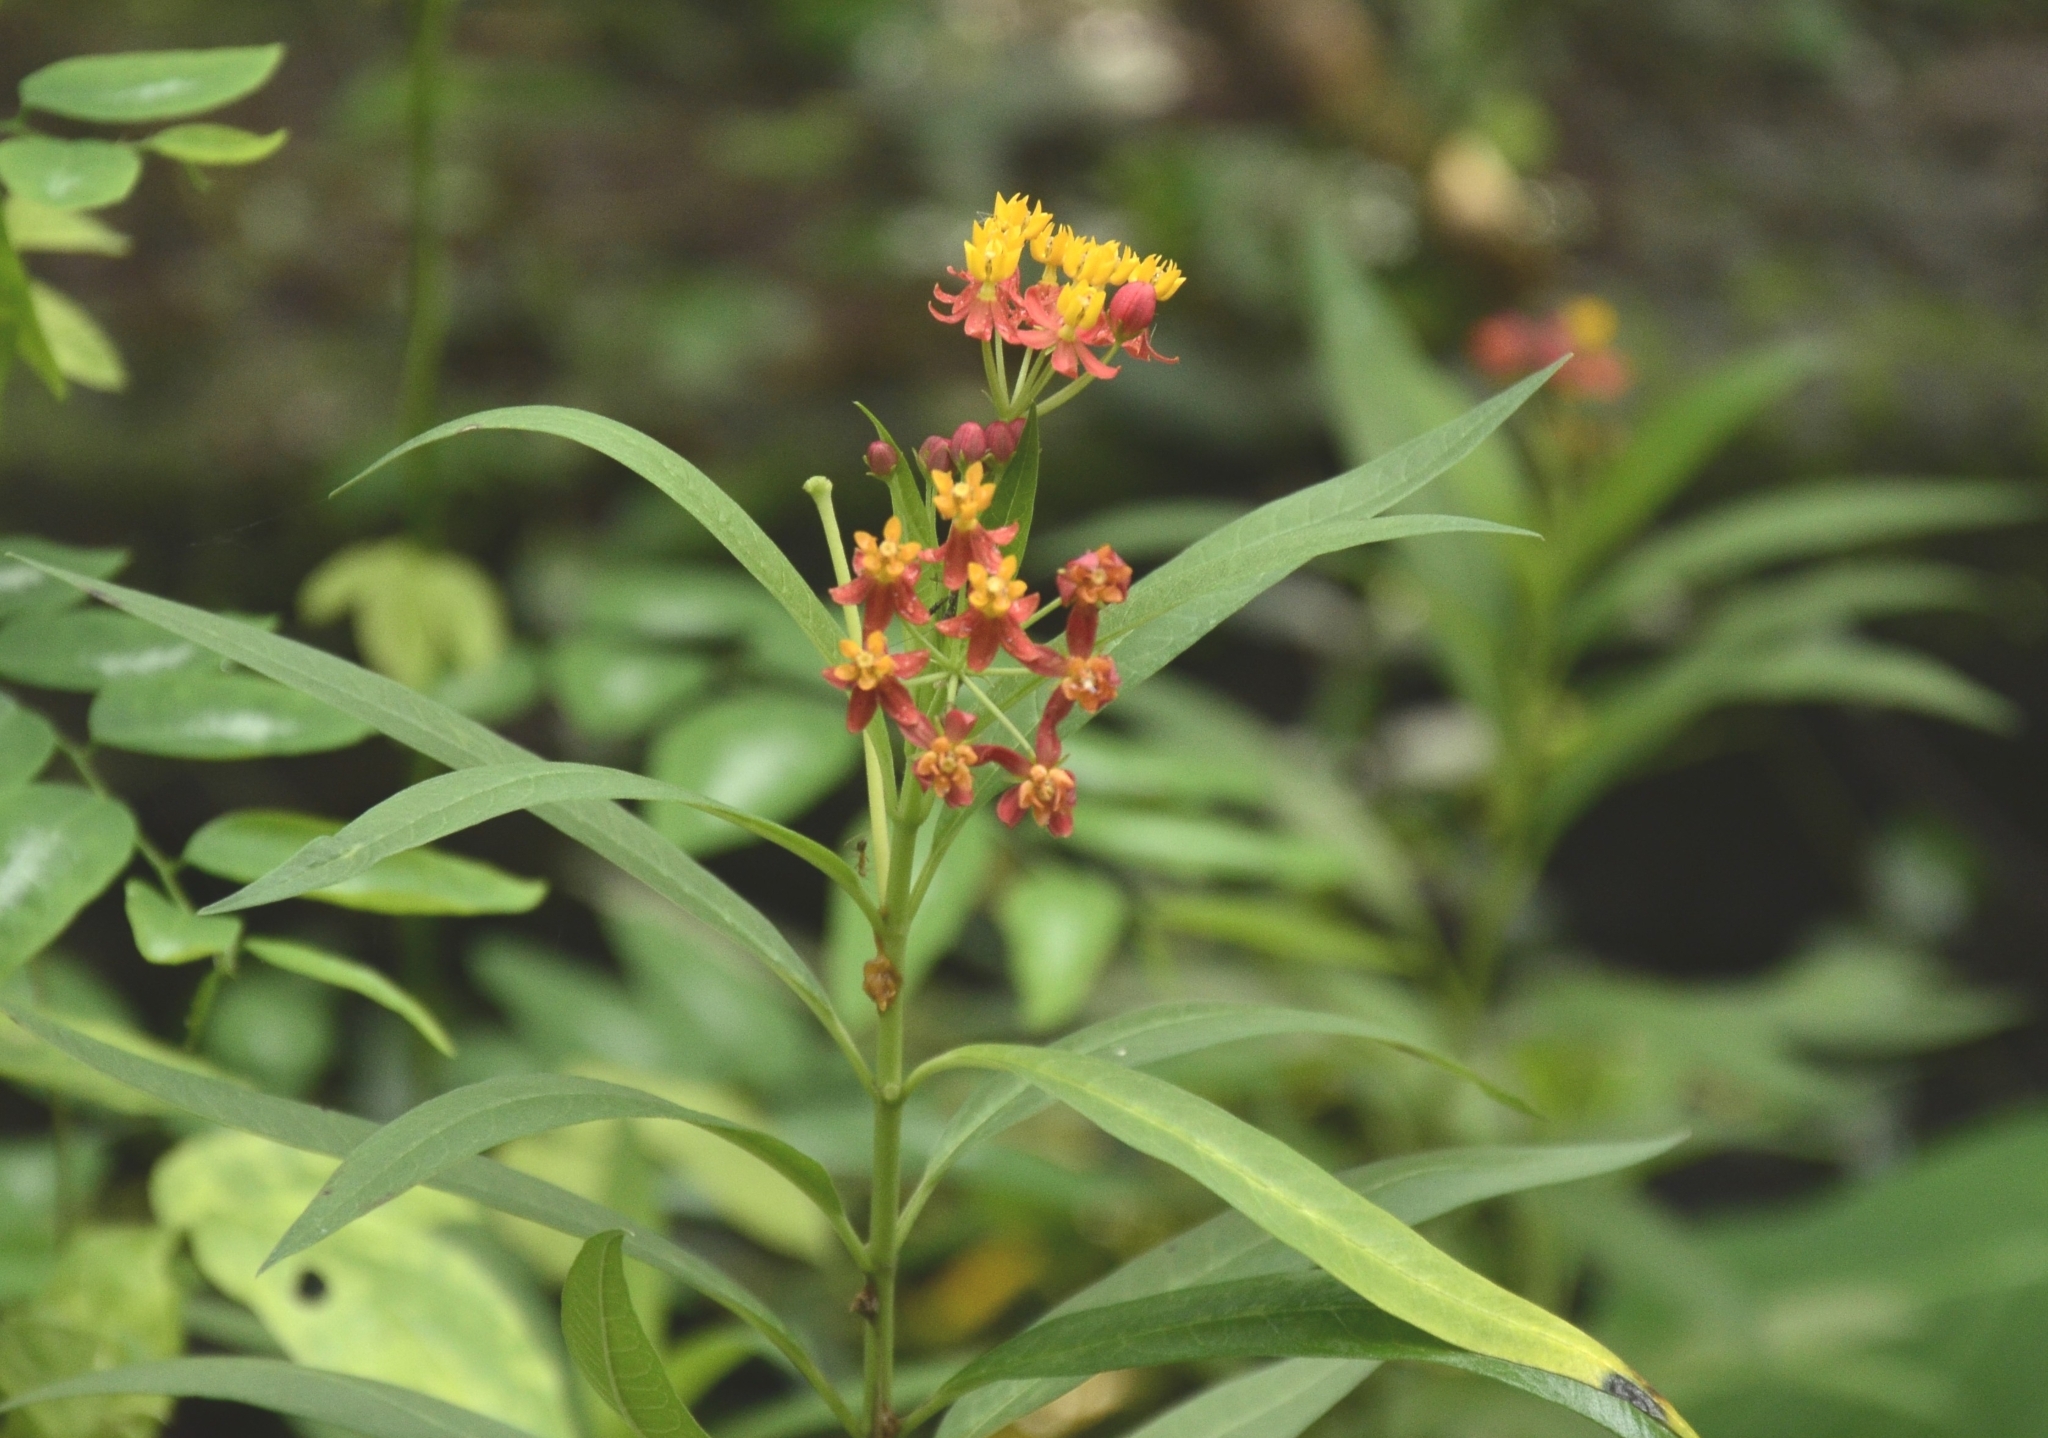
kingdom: Plantae
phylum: Tracheophyta
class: Magnoliopsida
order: Gentianales
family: Apocynaceae
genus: Asclepias
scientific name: Asclepias curassavica
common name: Bloodflower
